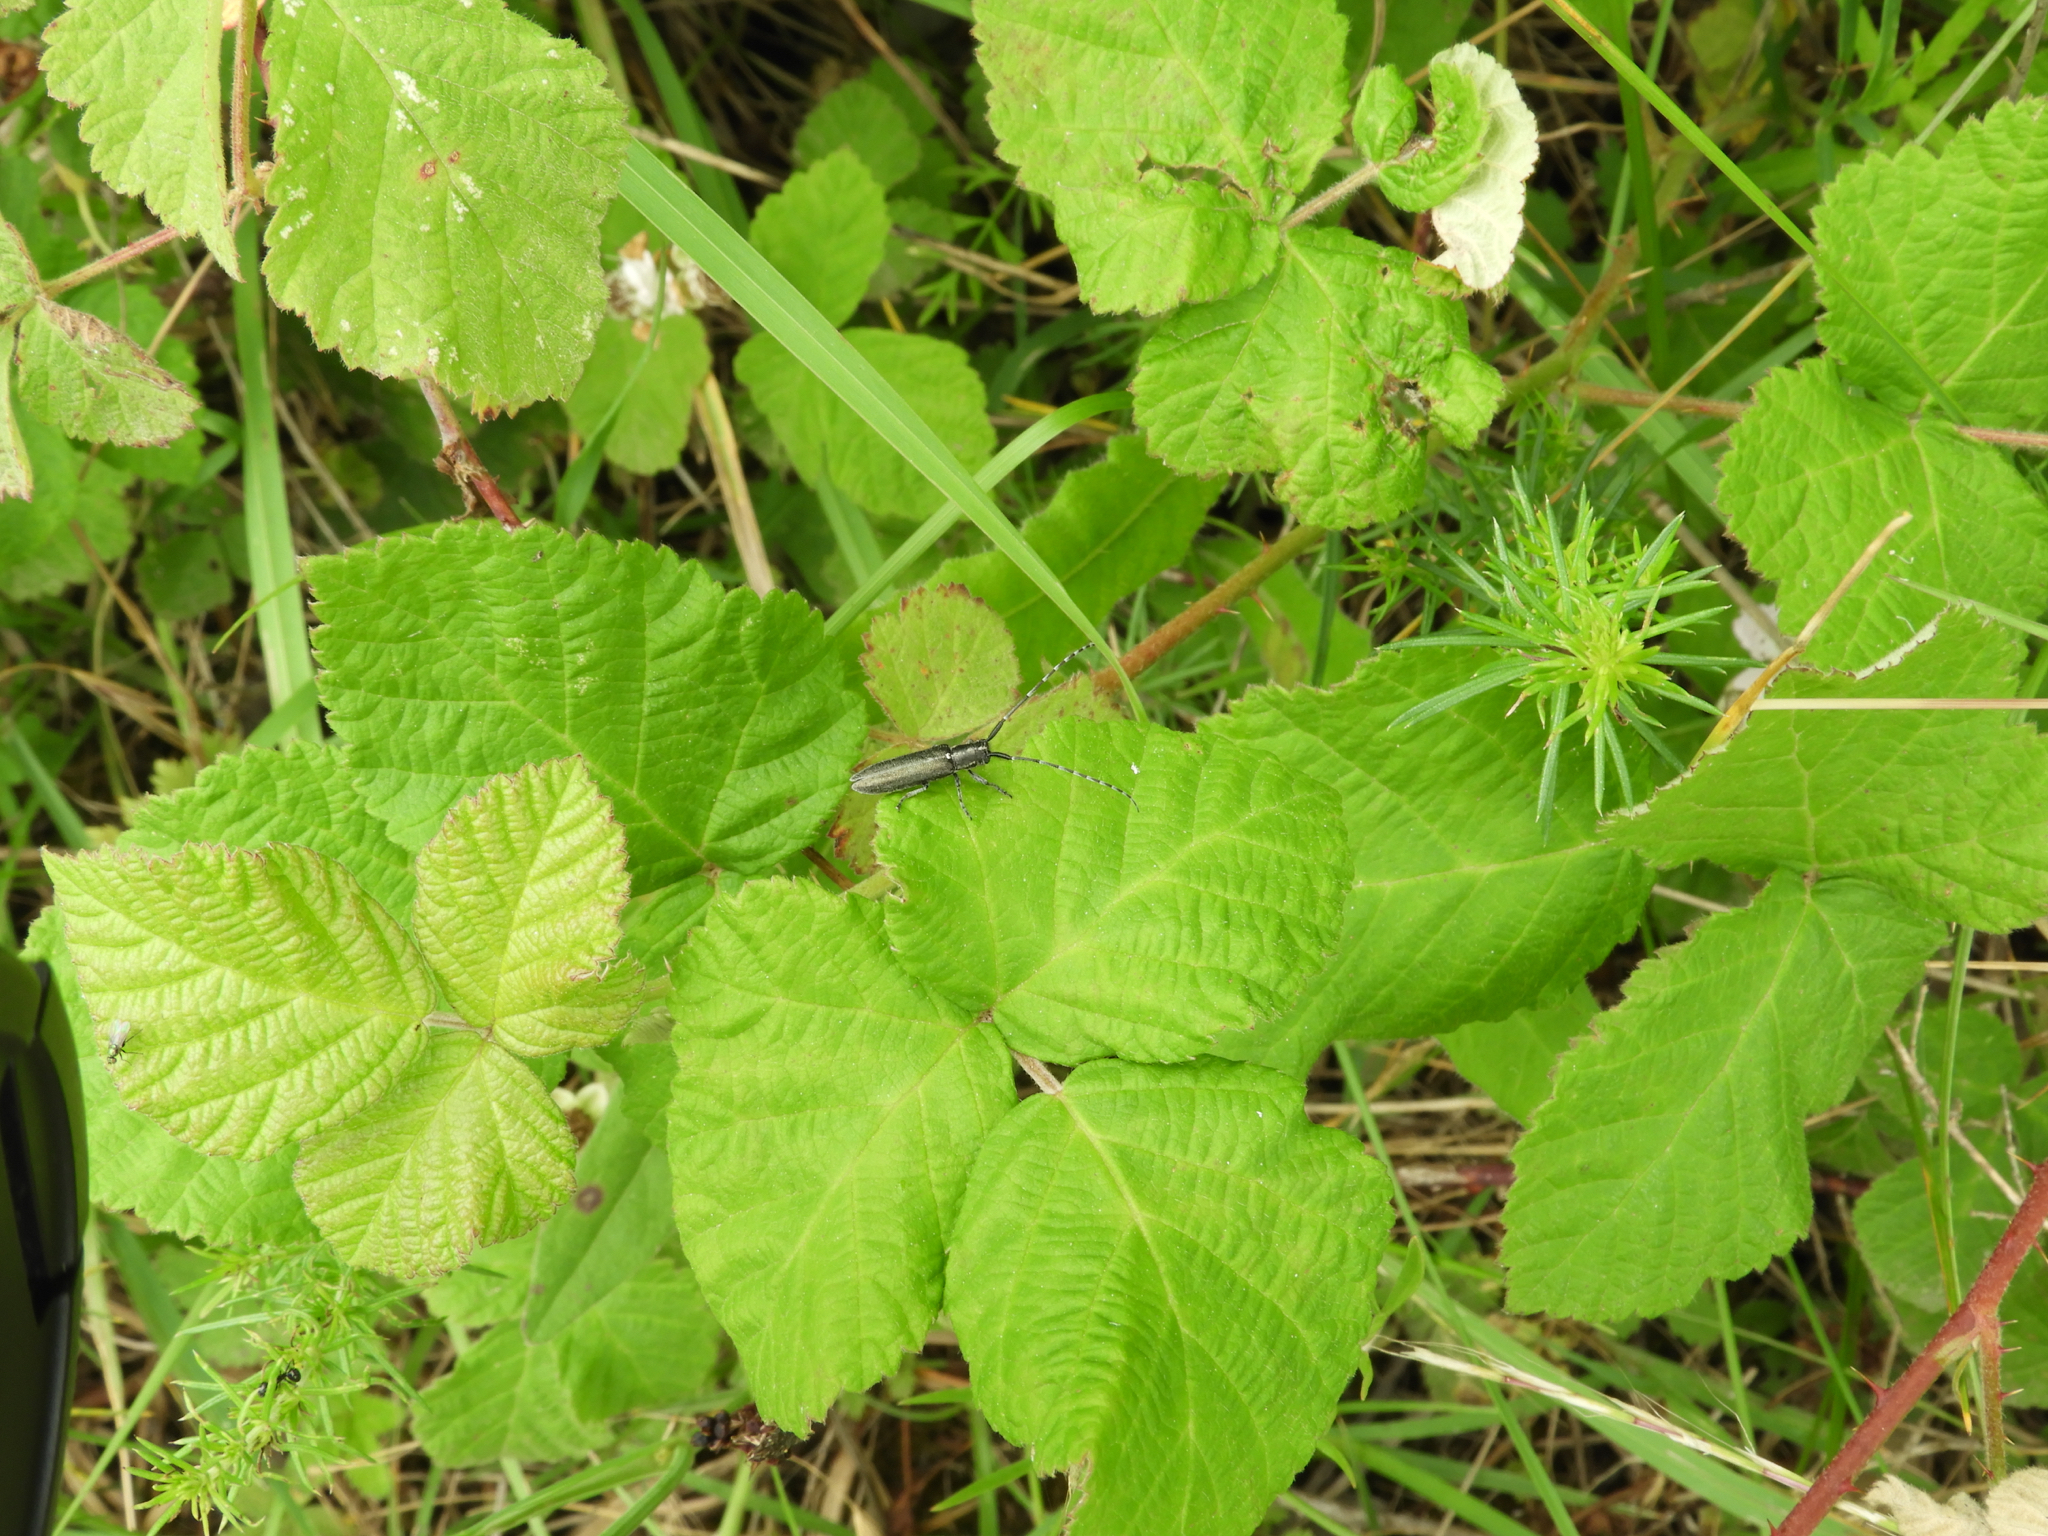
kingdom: Animalia
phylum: Arthropoda
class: Insecta
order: Coleoptera
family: Cerambycidae
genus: Agapanthia
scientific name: Agapanthia cardui
